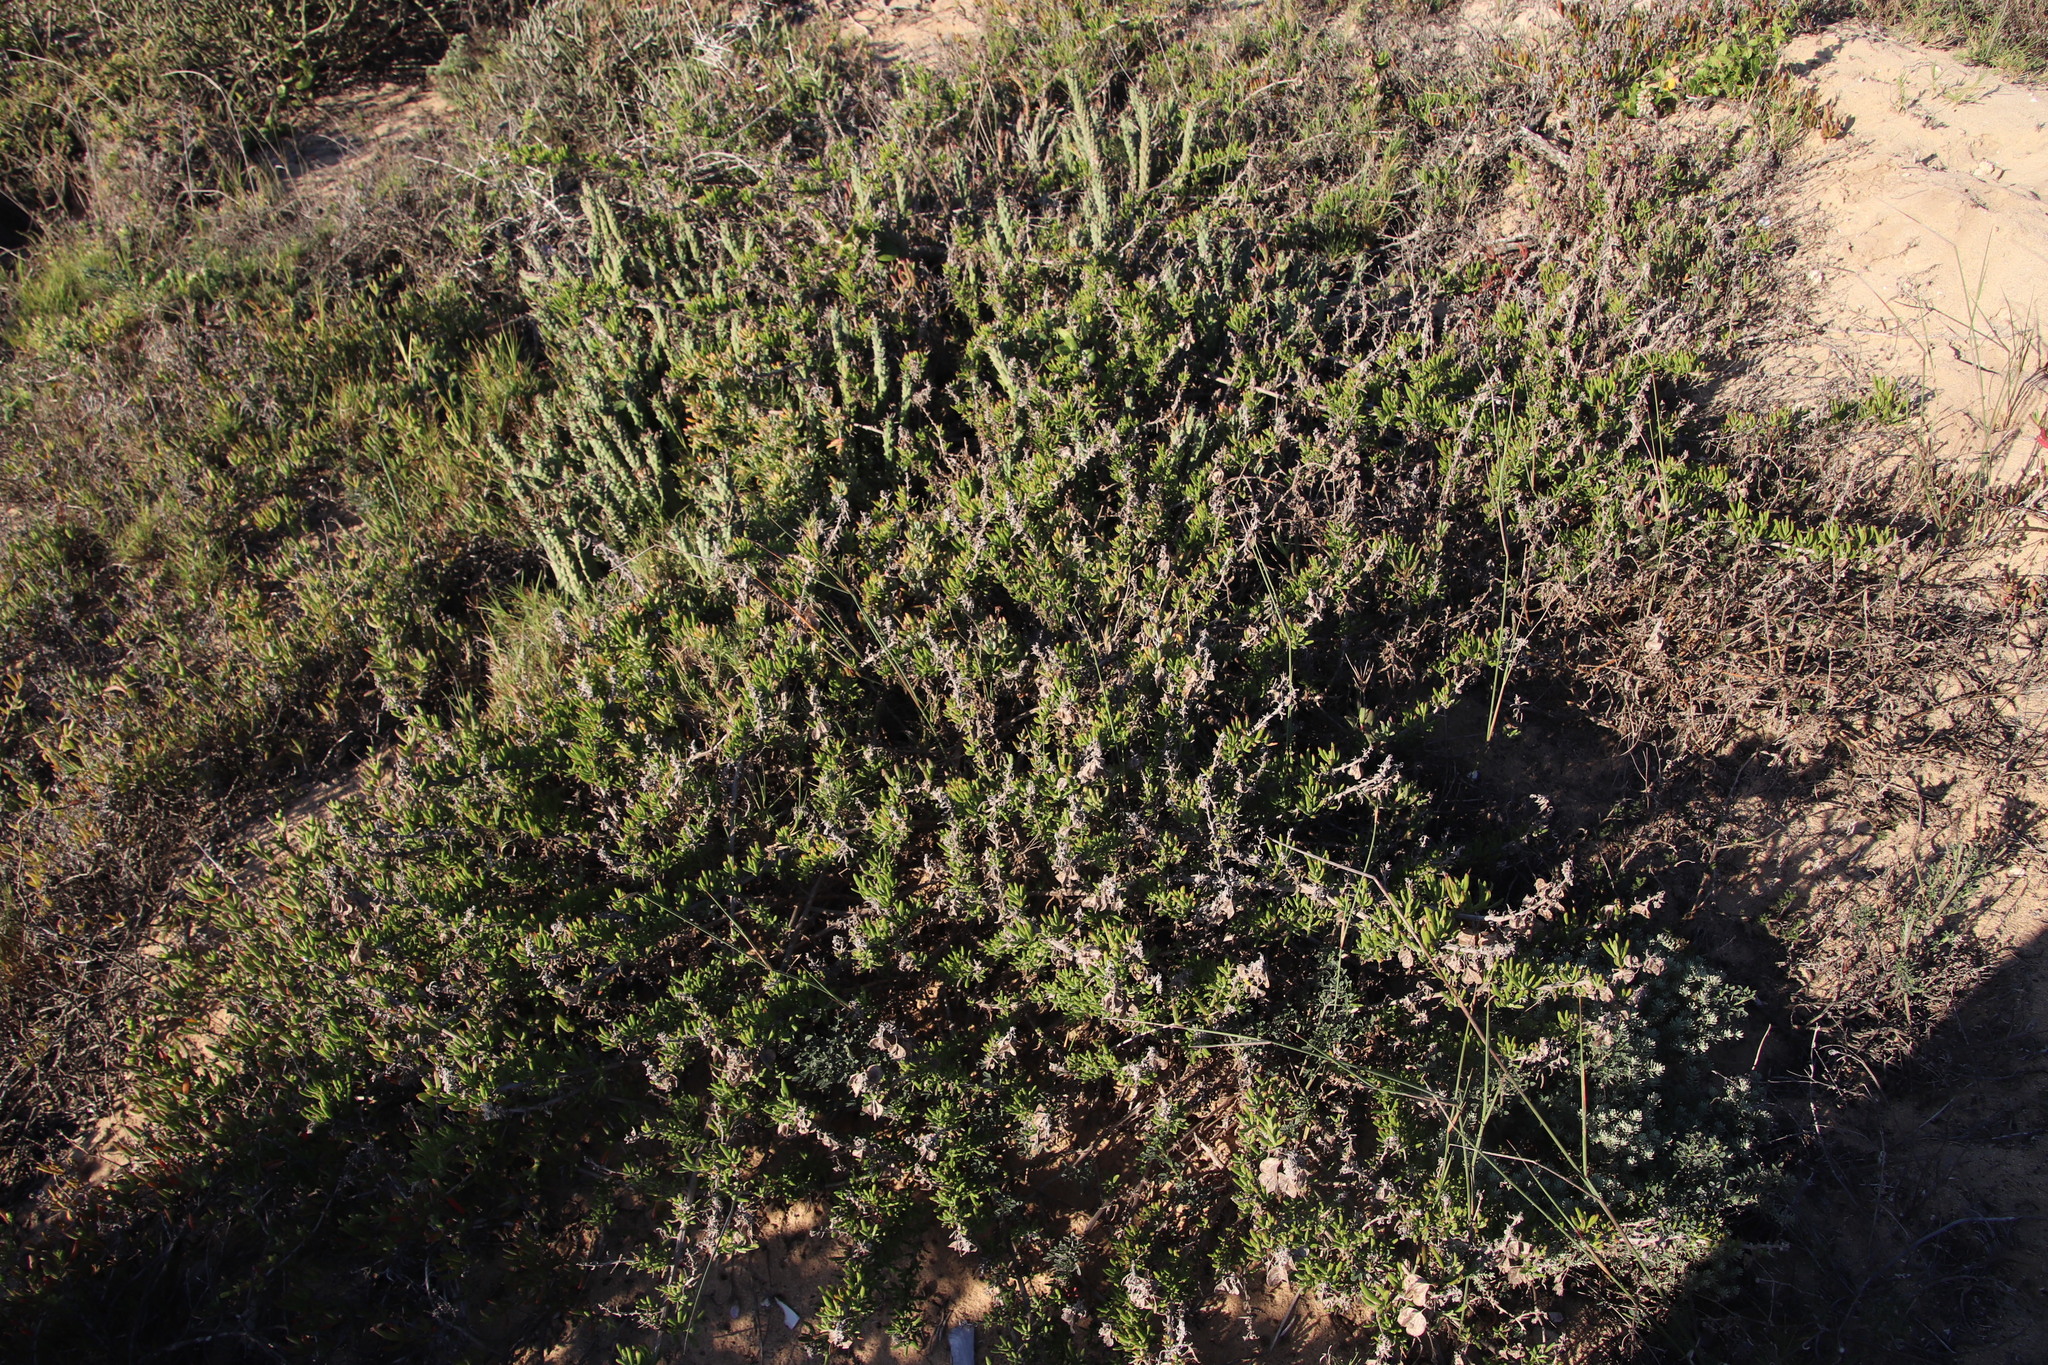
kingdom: Plantae
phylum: Tracheophyta
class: Magnoliopsida
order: Caryophyllales
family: Aizoaceae
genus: Tetragonia
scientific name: Tetragonia fruticosa
